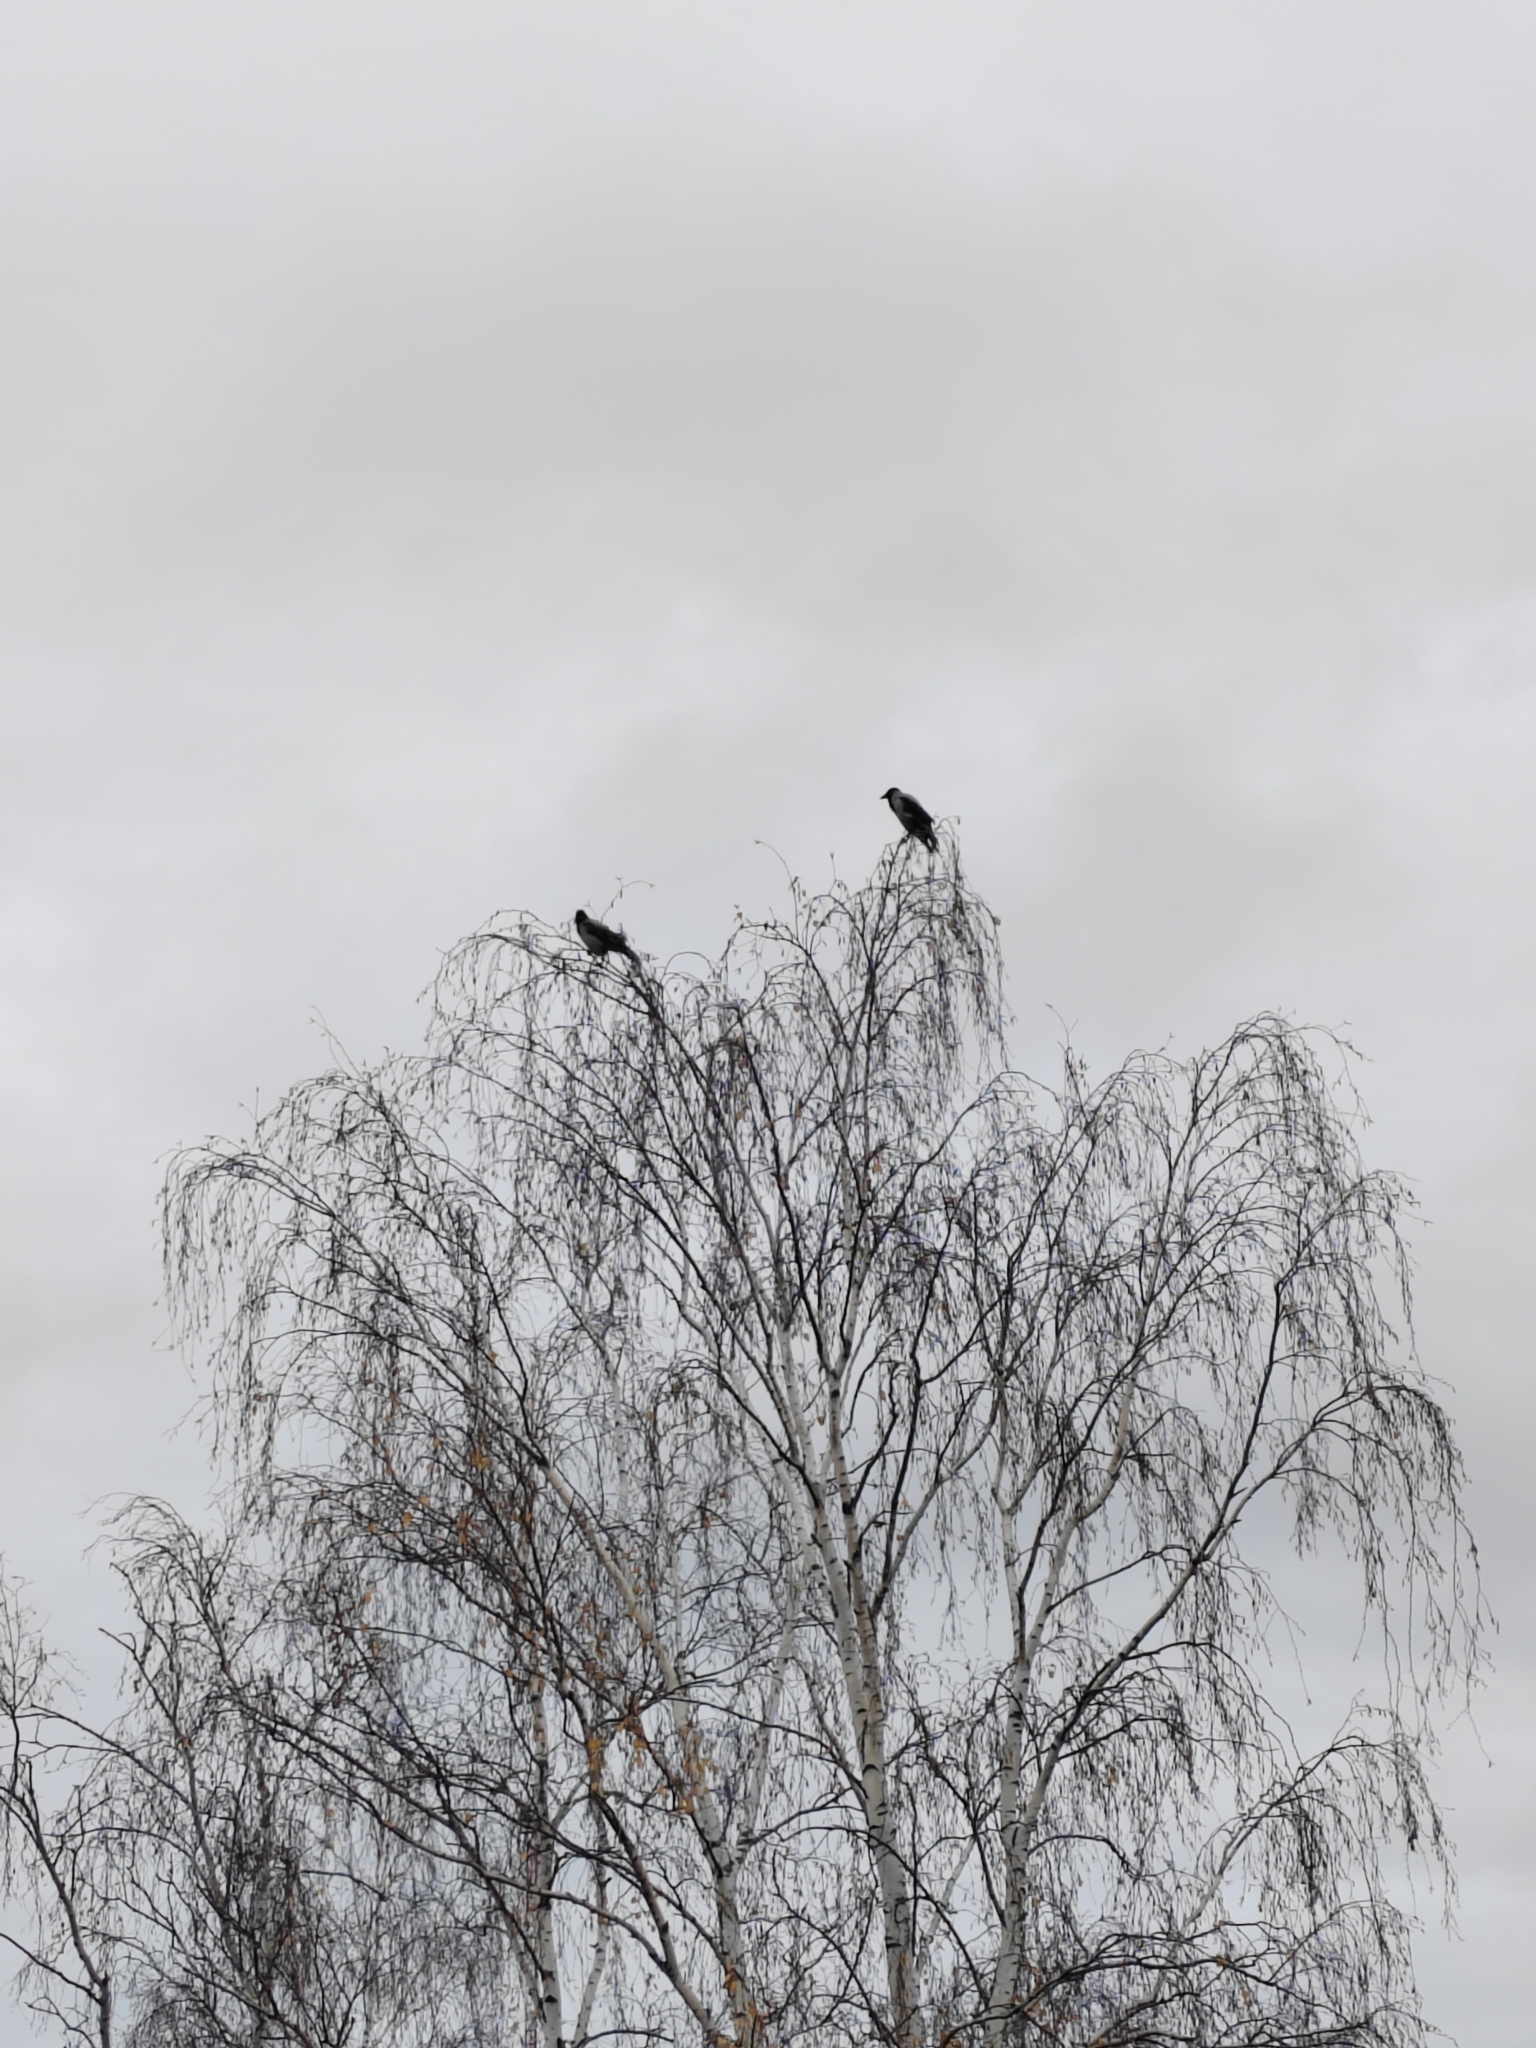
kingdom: Animalia
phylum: Chordata
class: Aves
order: Passeriformes
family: Corvidae
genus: Corvus
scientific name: Corvus cornix
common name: Hooded crow
